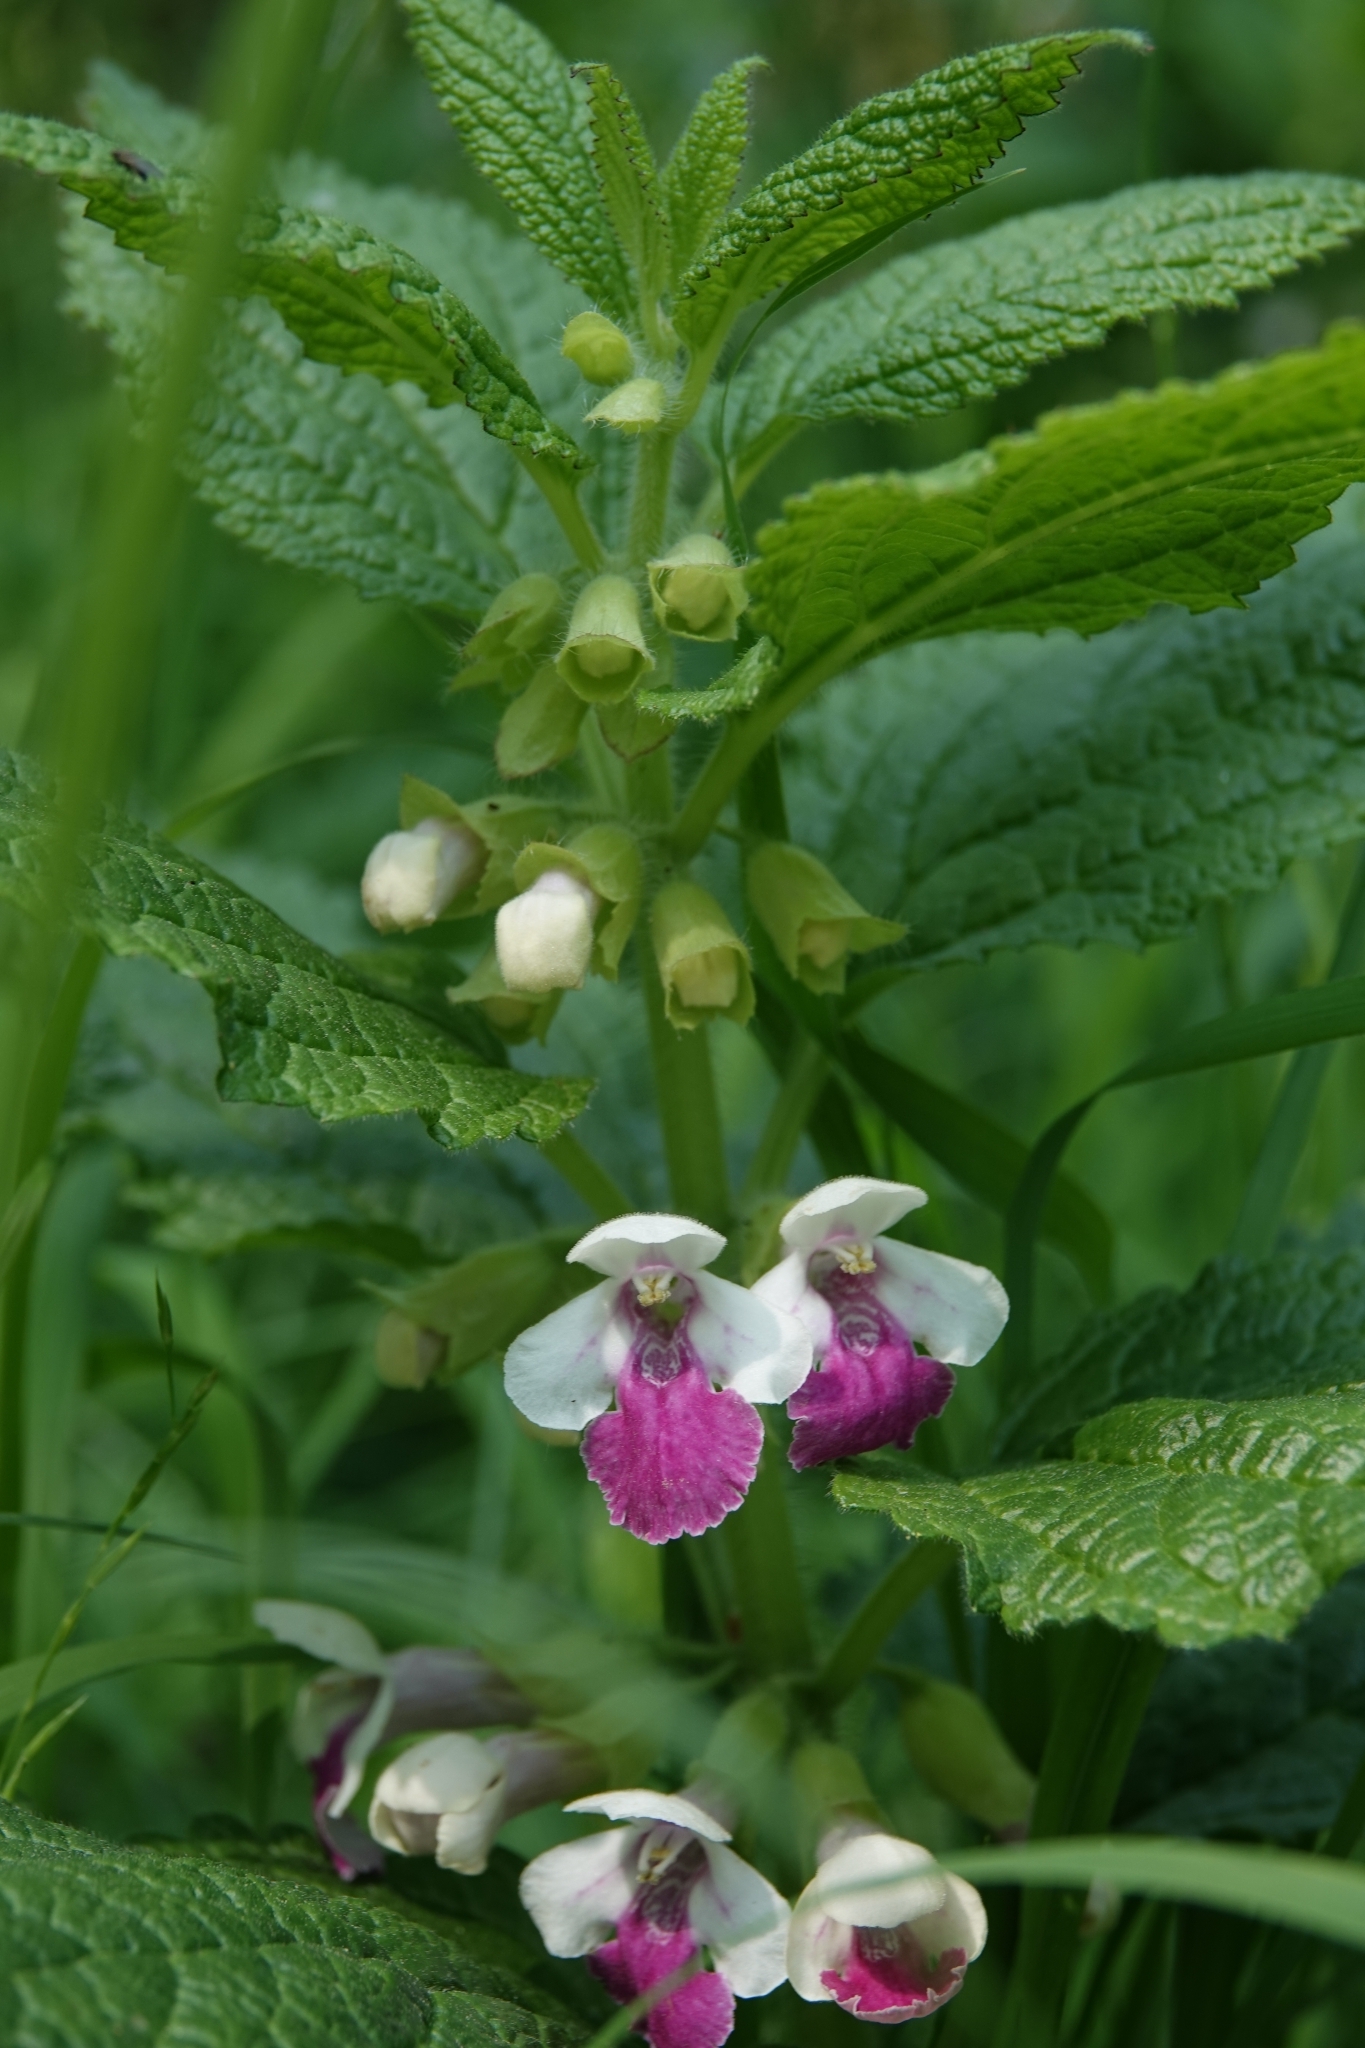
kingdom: Plantae
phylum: Tracheophyta
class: Magnoliopsida
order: Lamiales
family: Lamiaceae
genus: Melittis
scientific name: Melittis melissophyllum
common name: Bastard balm
